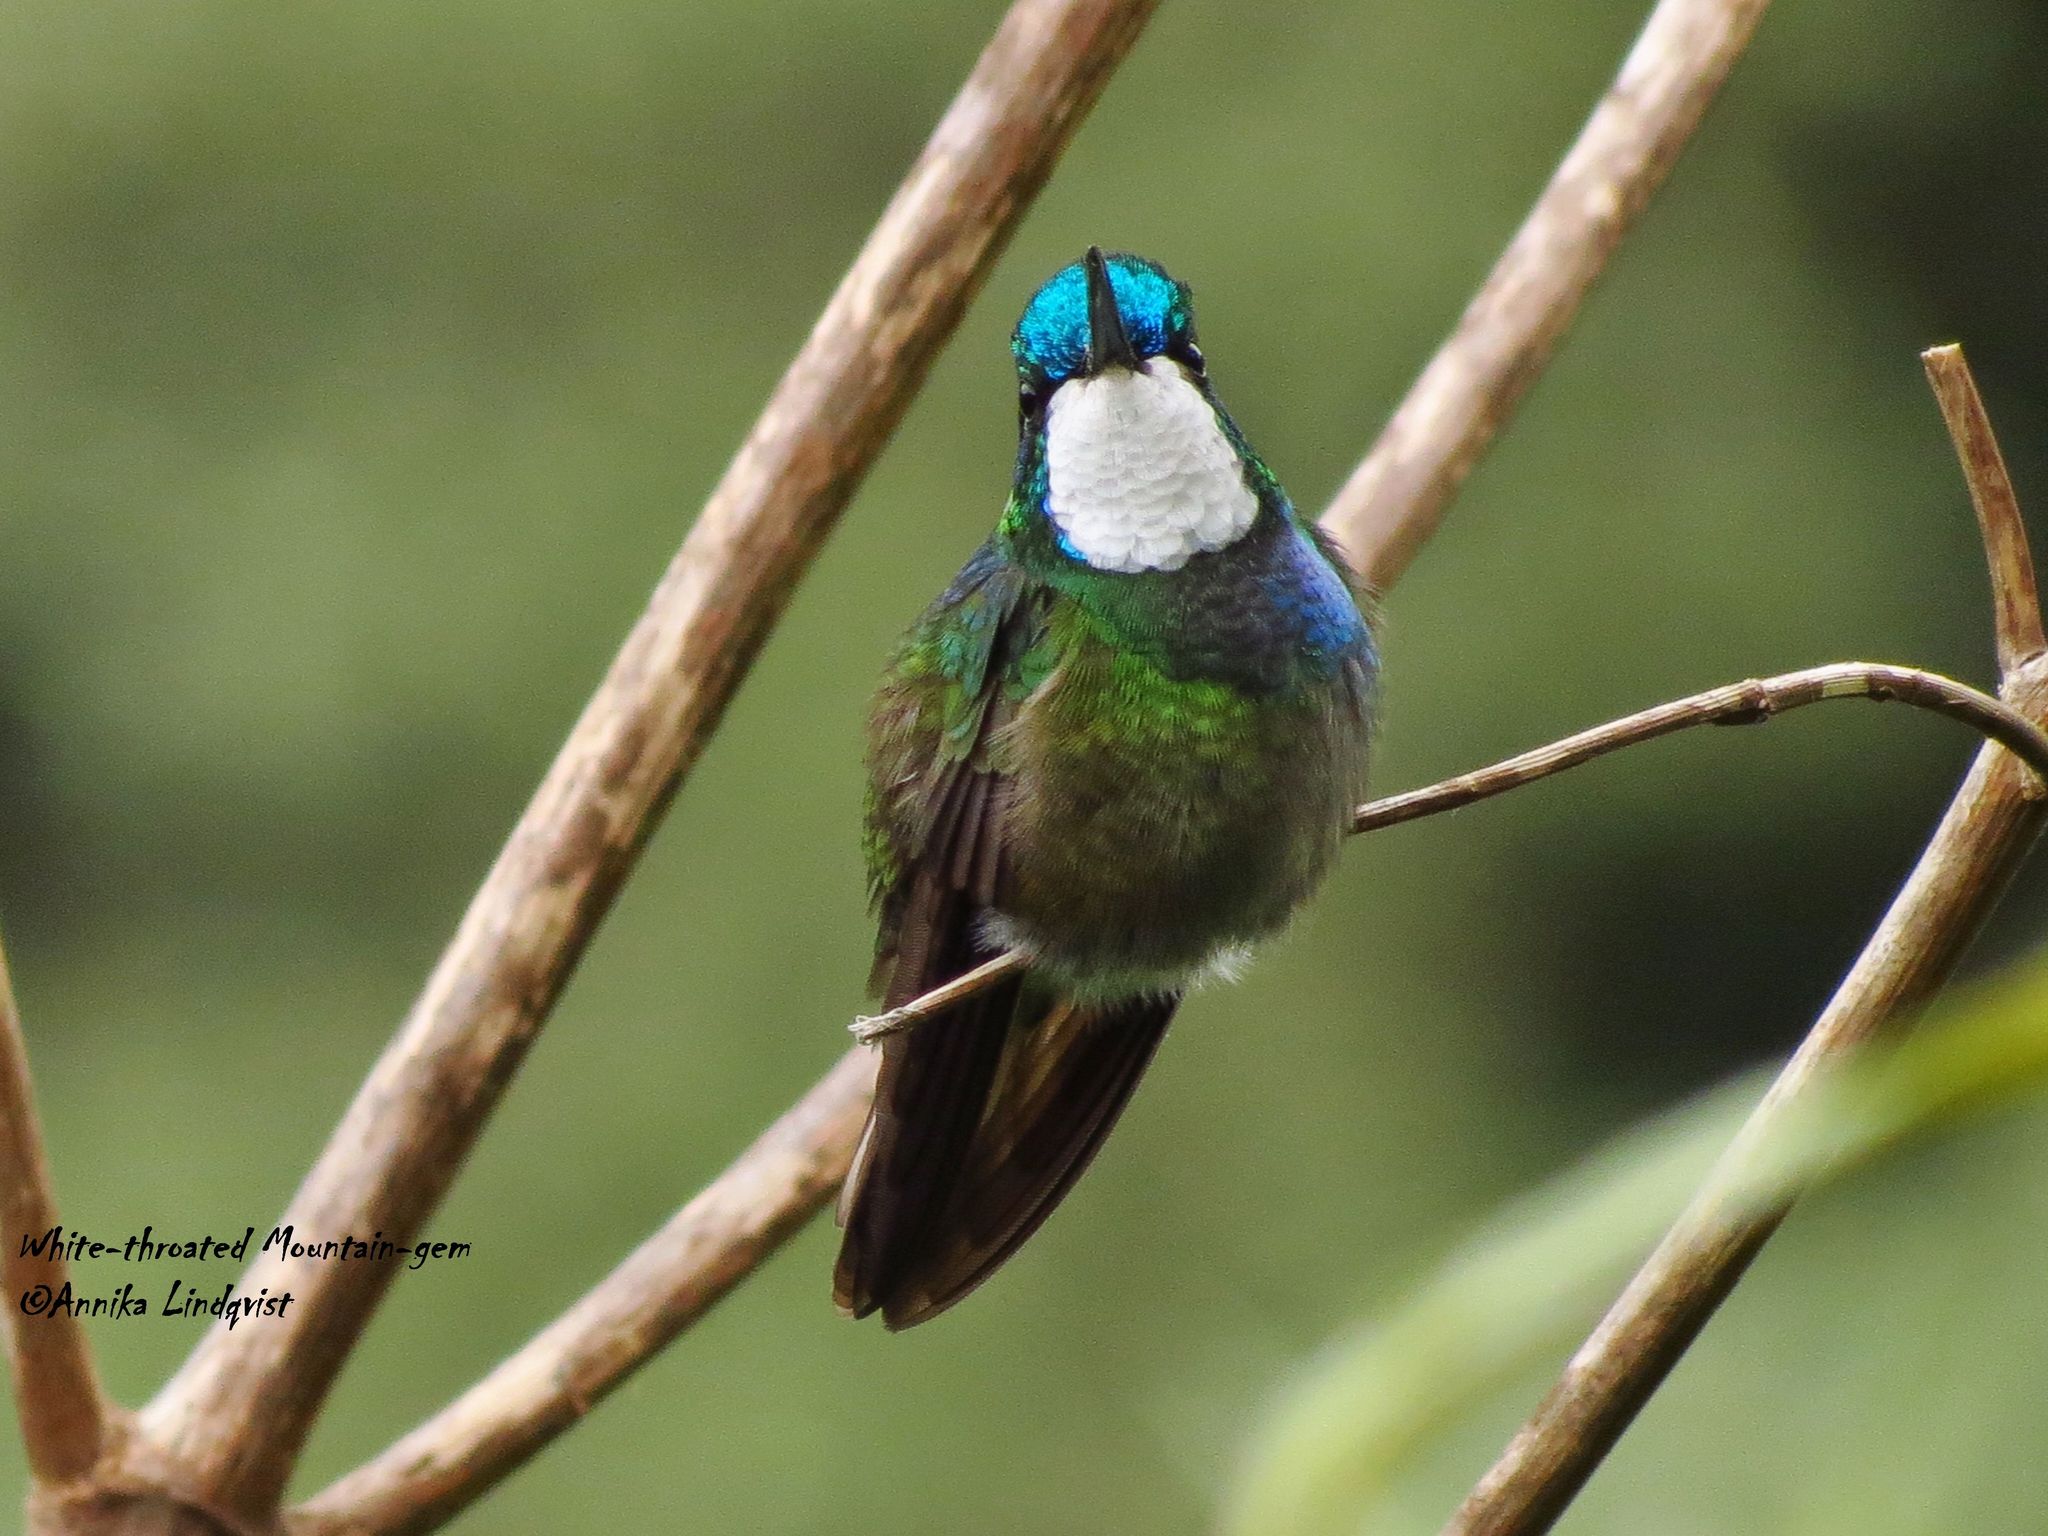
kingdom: Animalia
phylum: Chordata
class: Aves
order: Apodiformes
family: Trochilidae
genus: Lampornis
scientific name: Lampornis castaneoventris
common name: White-throated mountain-gem
